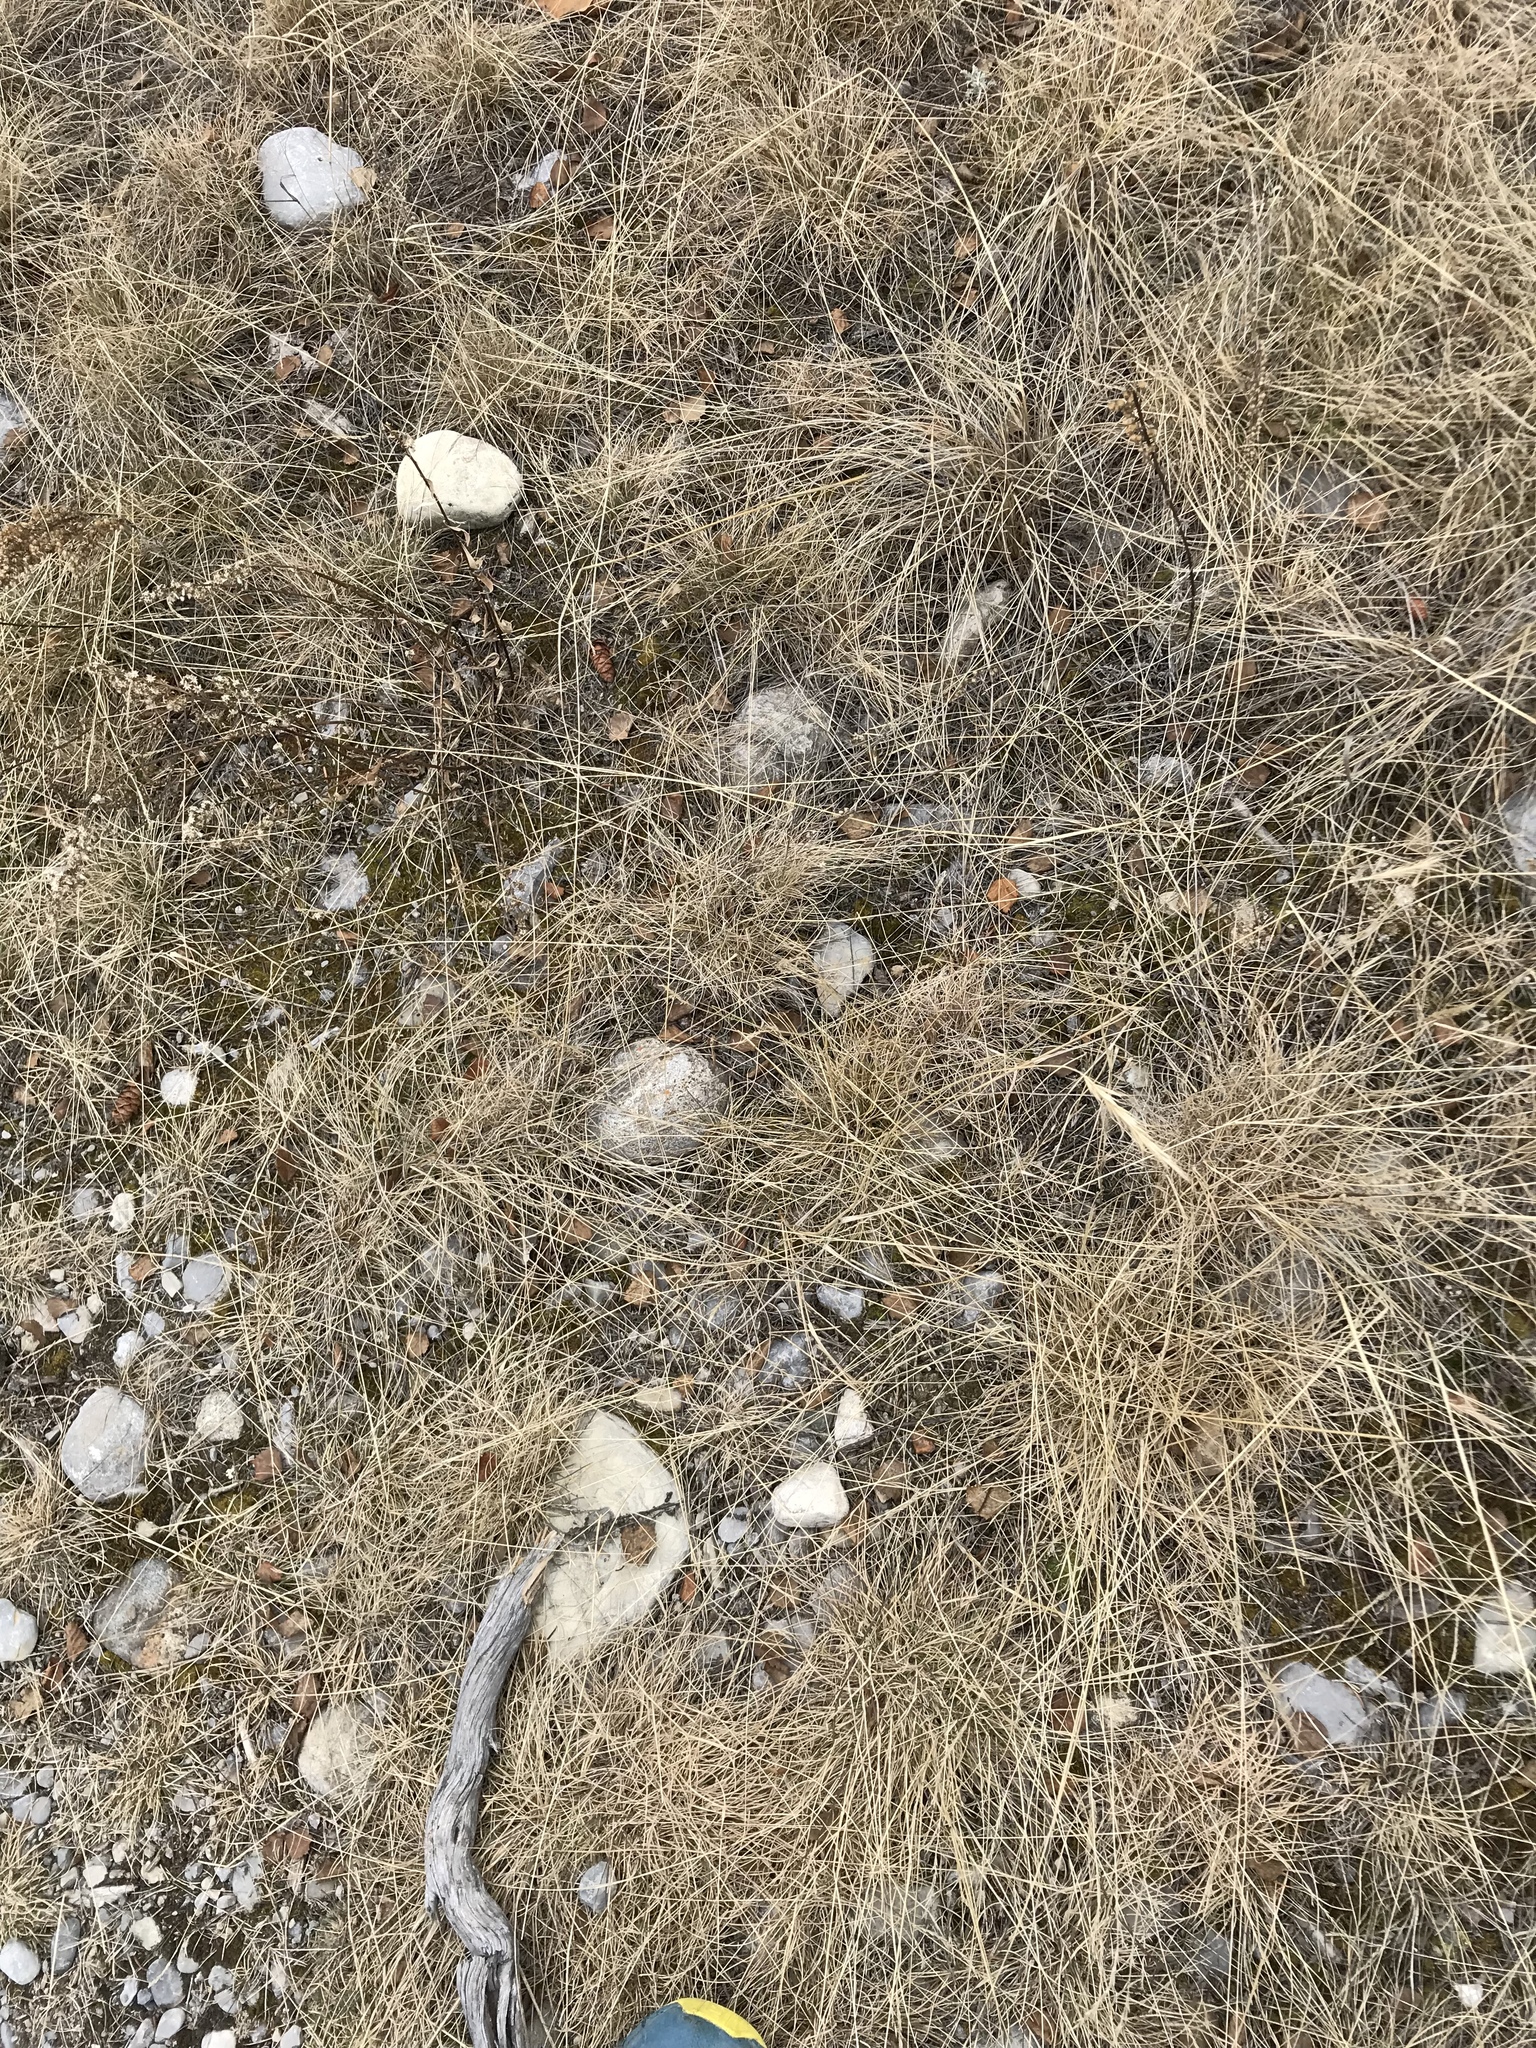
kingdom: Plantae
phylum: Tracheophyta
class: Liliopsida
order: Poales
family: Poaceae
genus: Elymus
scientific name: Elymus canadensis
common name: Canada wild rye
